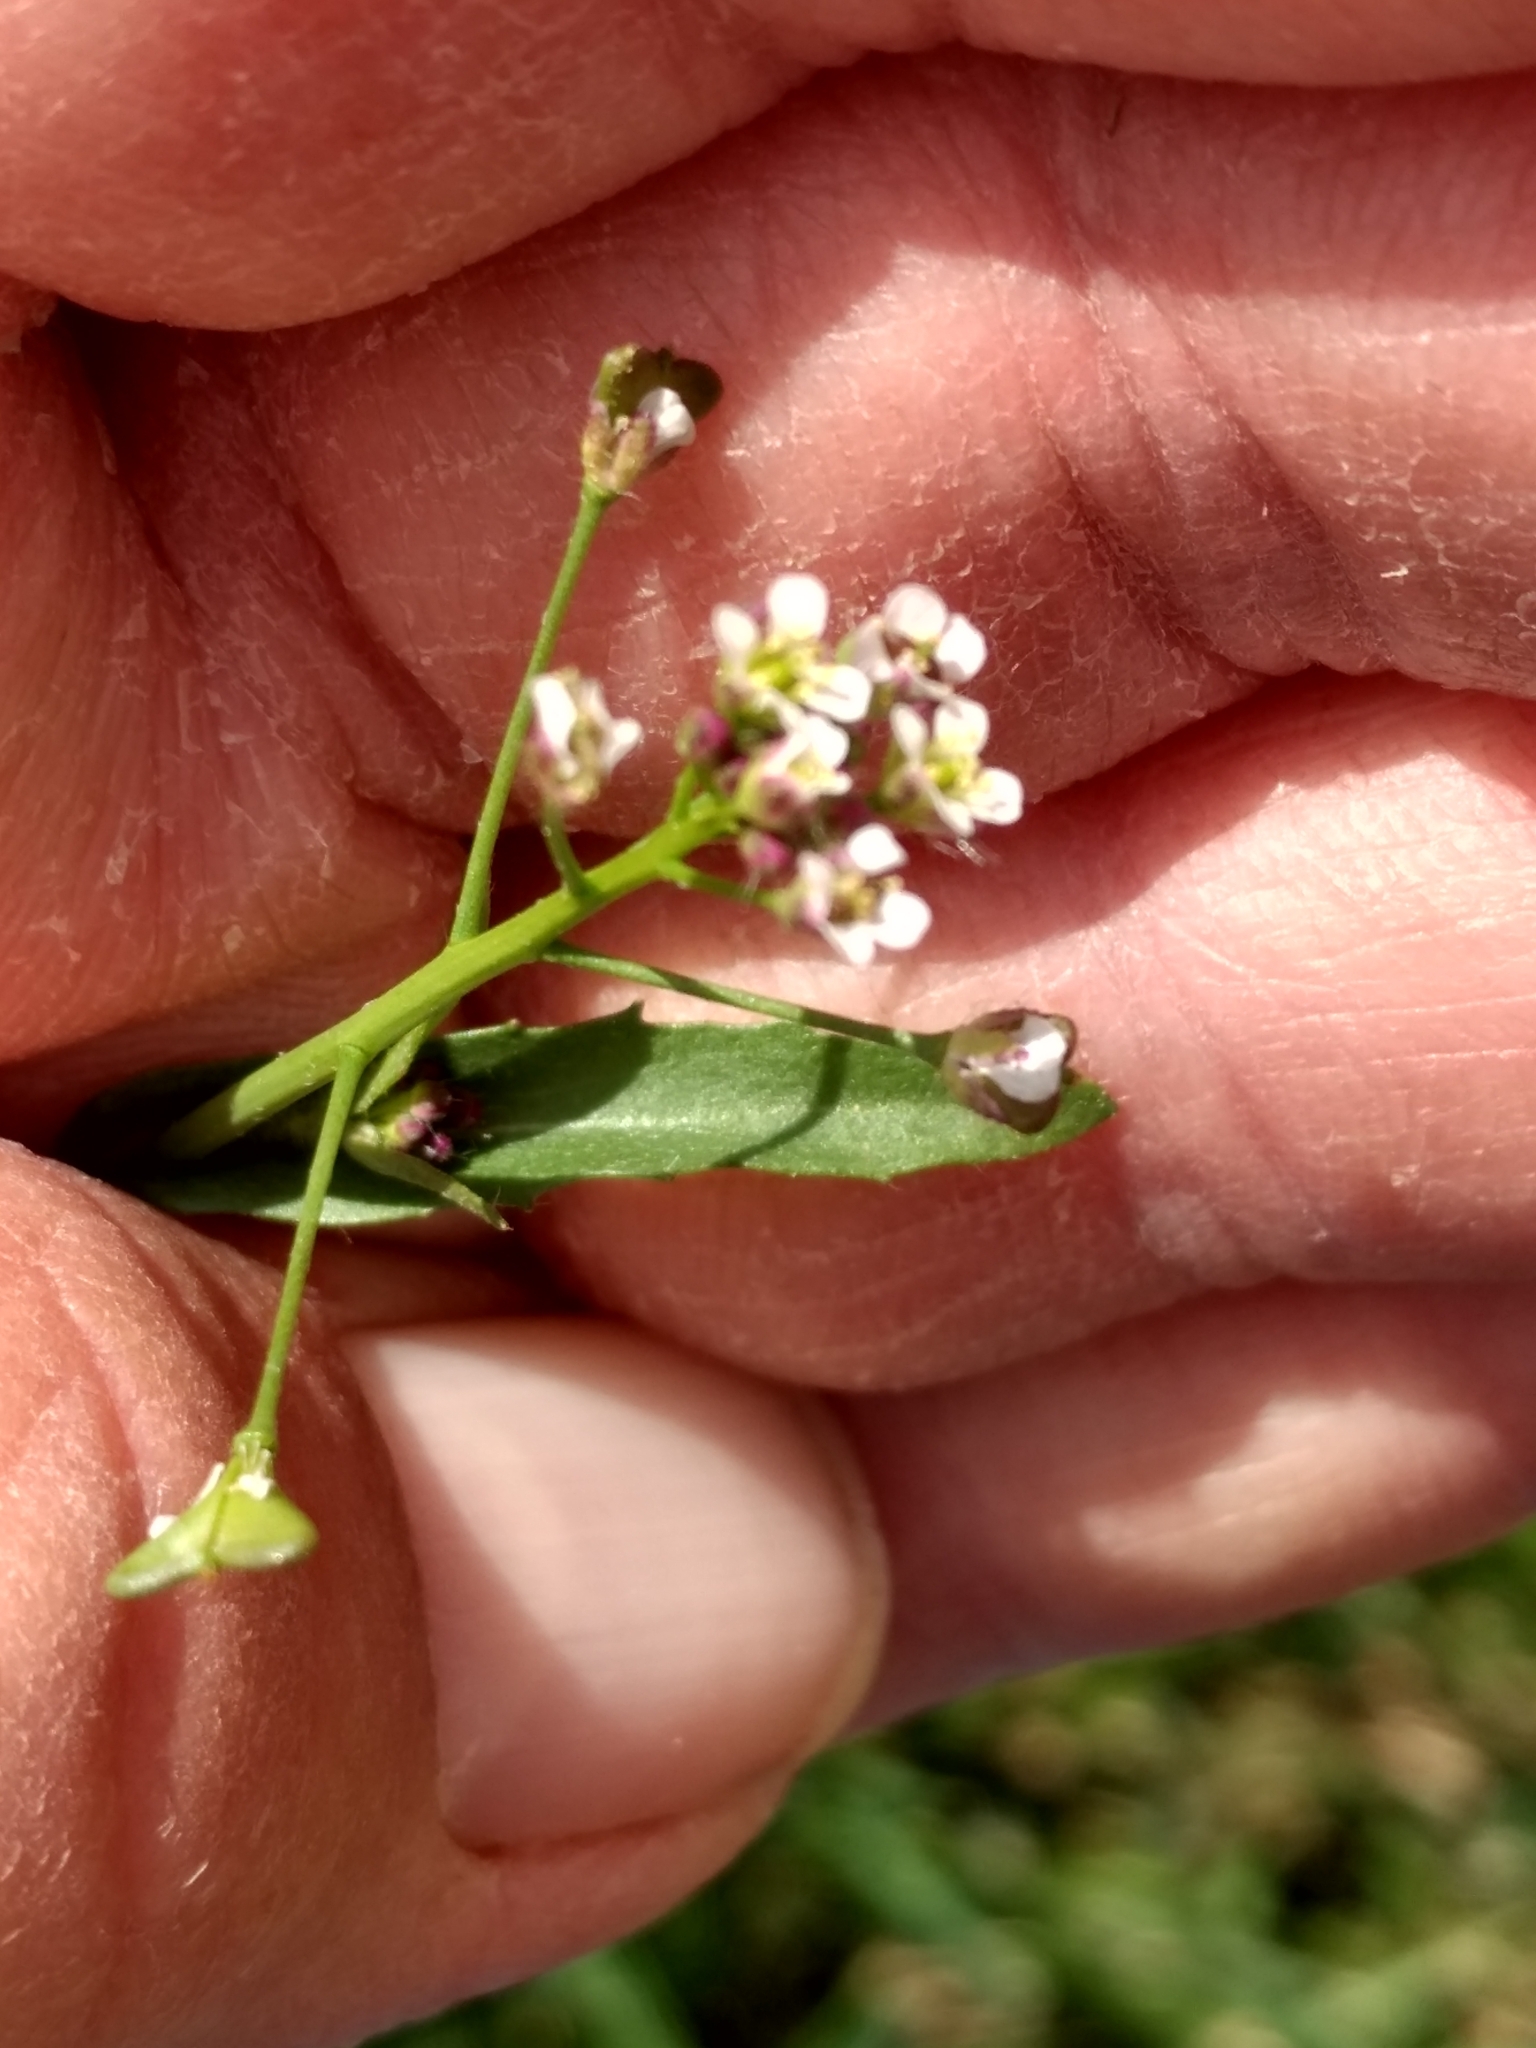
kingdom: Plantae
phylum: Tracheophyta
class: Magnoliopsida
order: Brassicales
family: Brassicaceae
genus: Capsella
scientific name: Capsella bursa-pastoris
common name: Shepherd's purse
